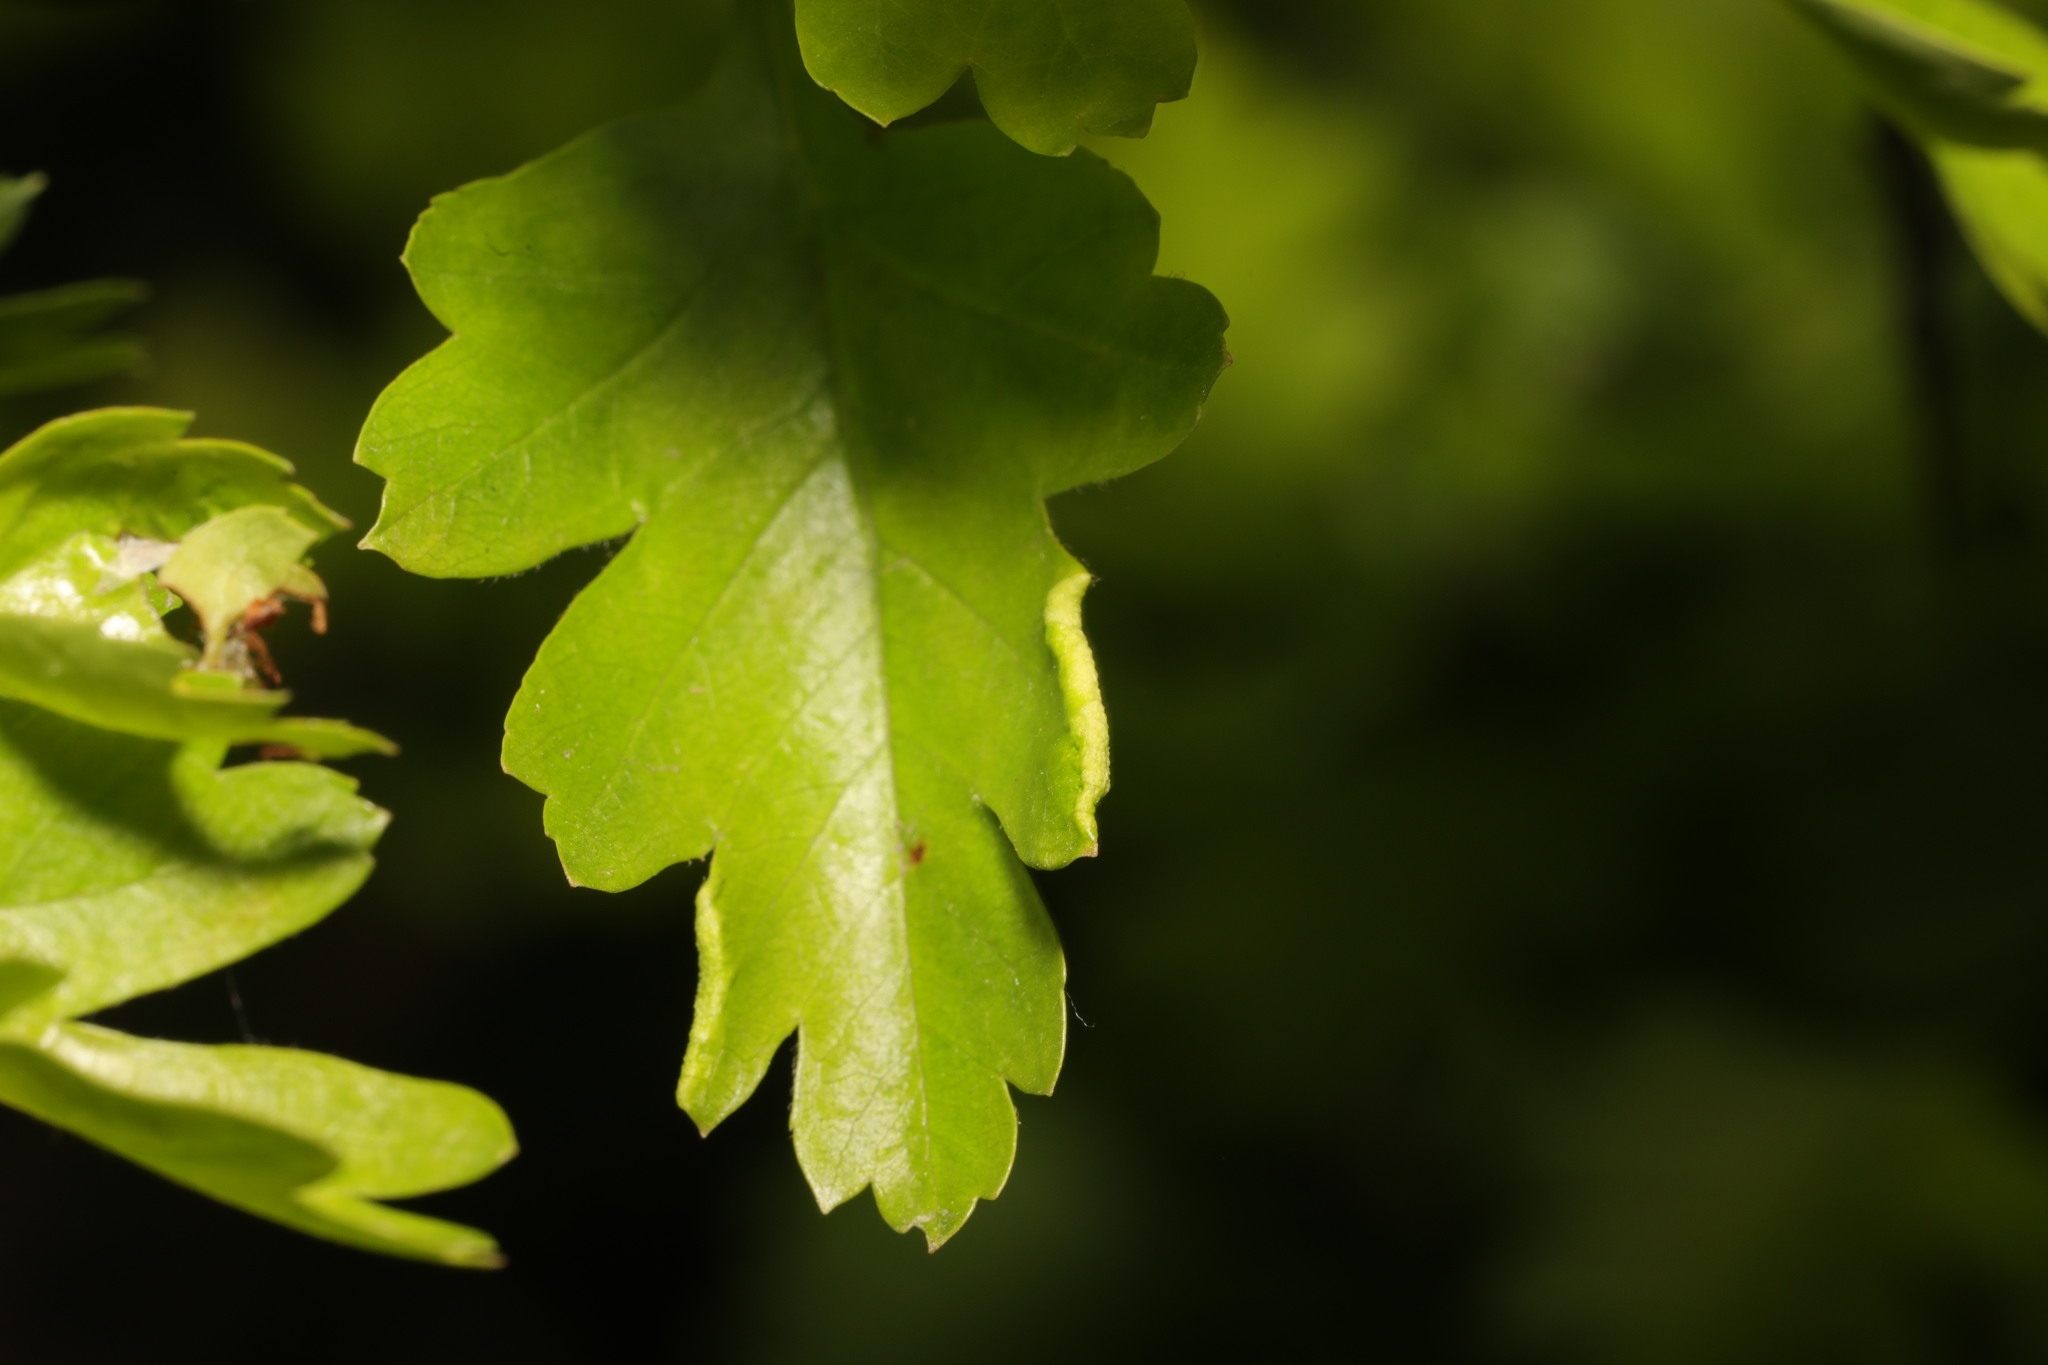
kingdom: Animalia
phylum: Arthropoda
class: Arachnida
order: Trombidiformes
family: Eriophyidae
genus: Phyllocoptes
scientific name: Phyllocoptes goniothorax
